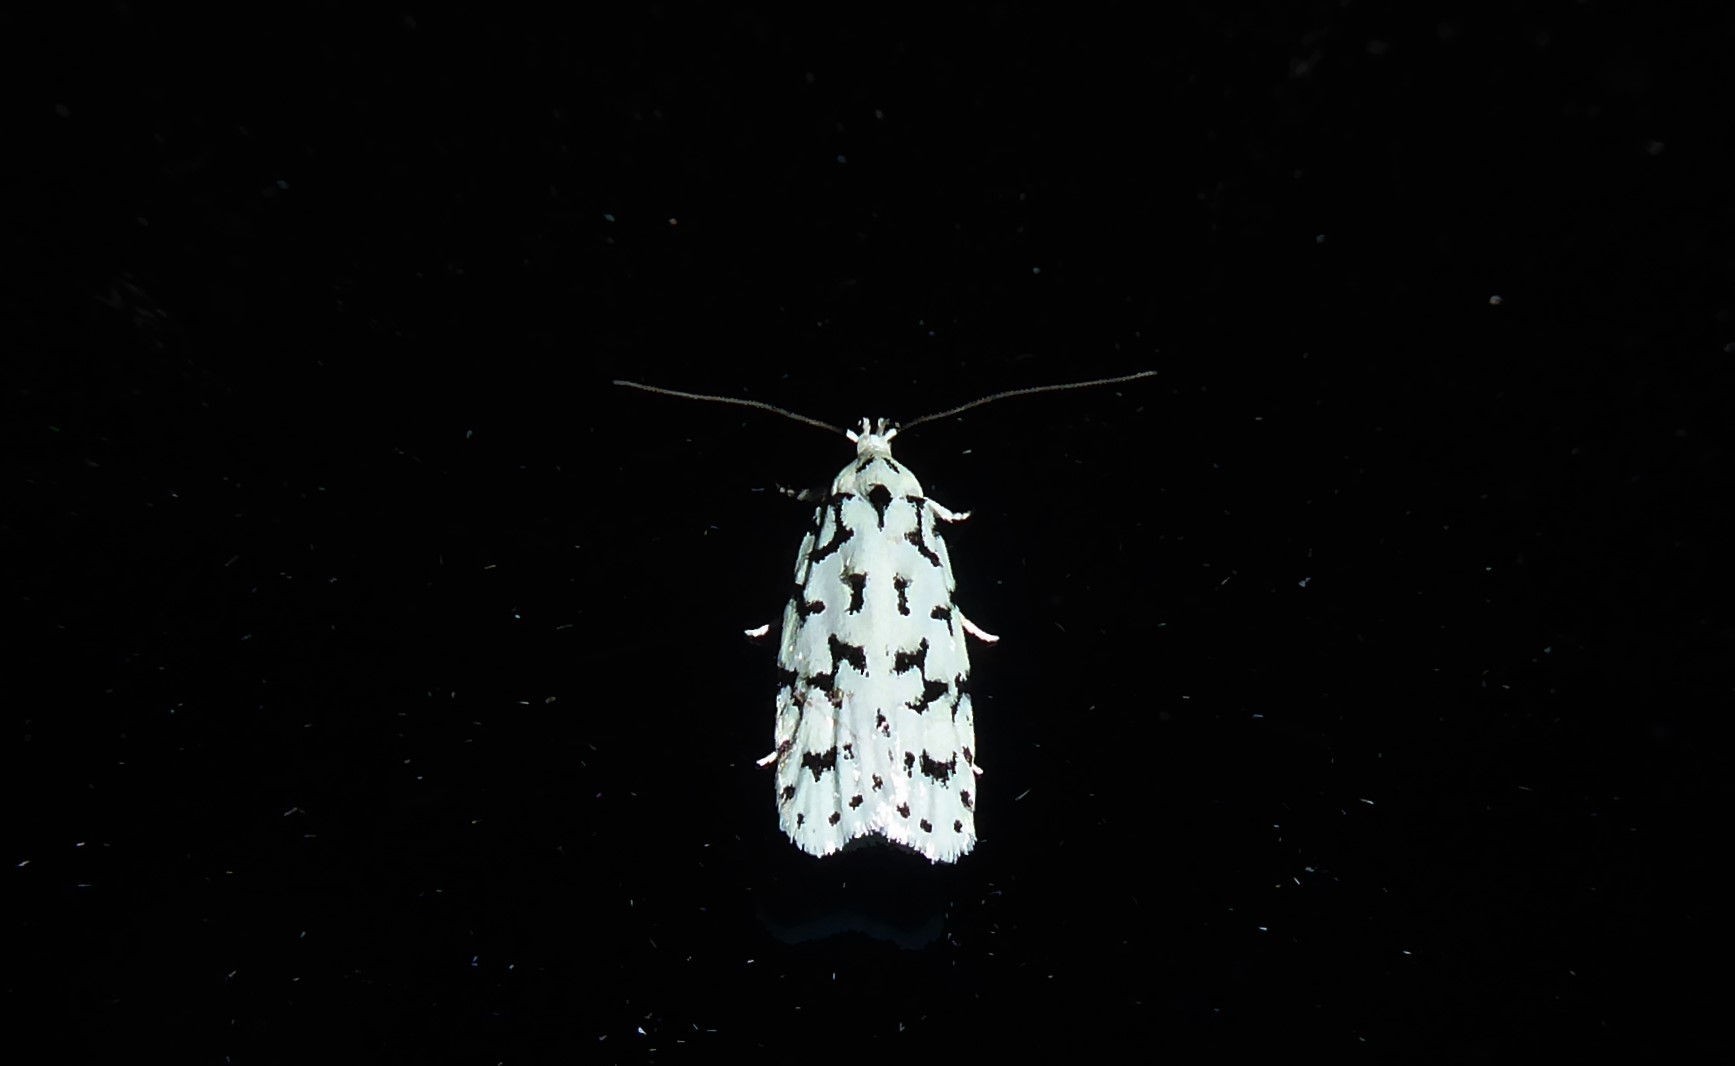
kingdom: Animalia
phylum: Arthropoda
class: Insecta
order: Lepidoptera
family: Oecophoridae
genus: Izatha
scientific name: Izatha huttoni
